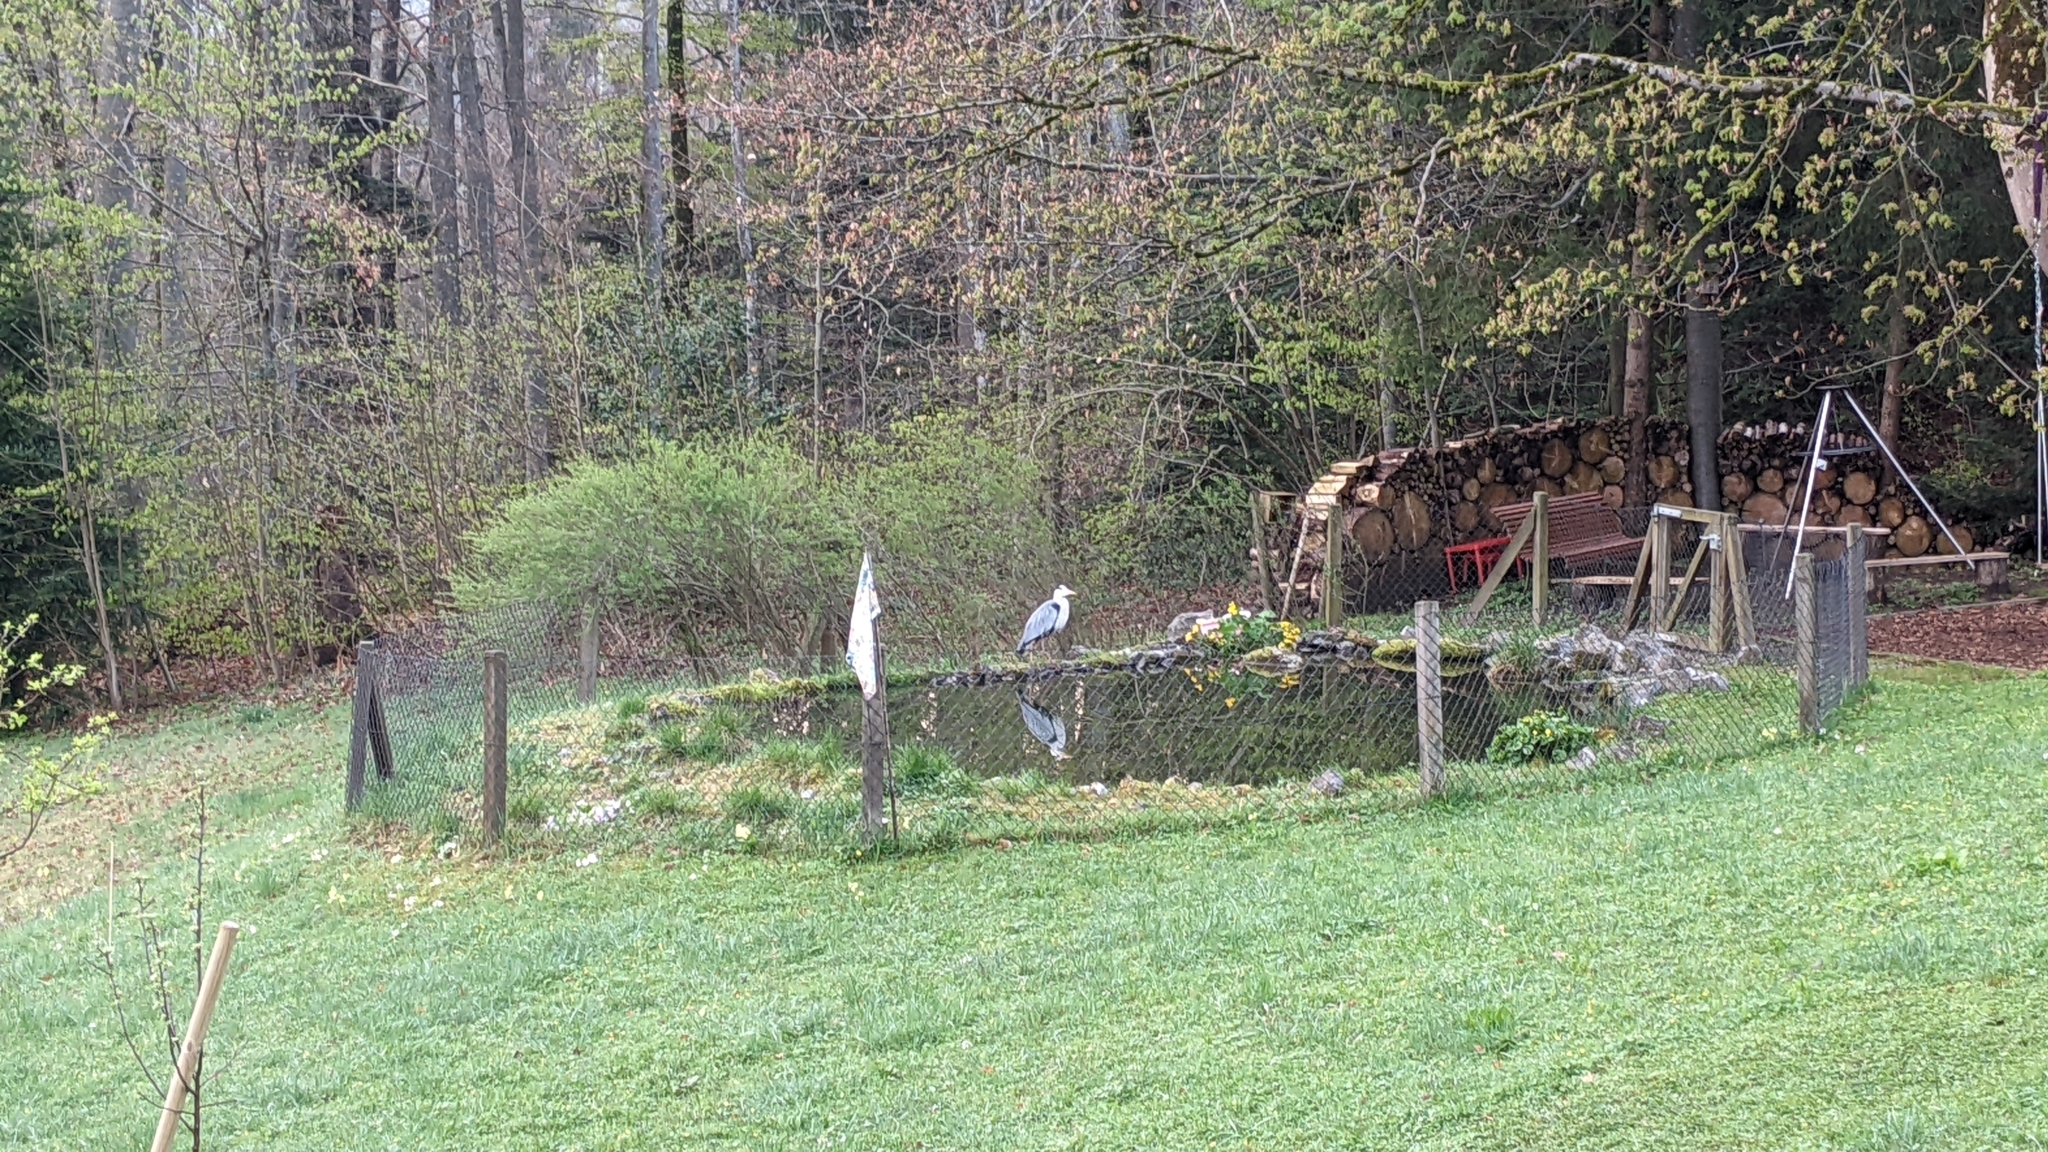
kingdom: Animalia
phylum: Chordata
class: Aves
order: Pelecaniformes
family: Ardeidae
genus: Ardea
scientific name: Ardea cinerea
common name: Grey heron
